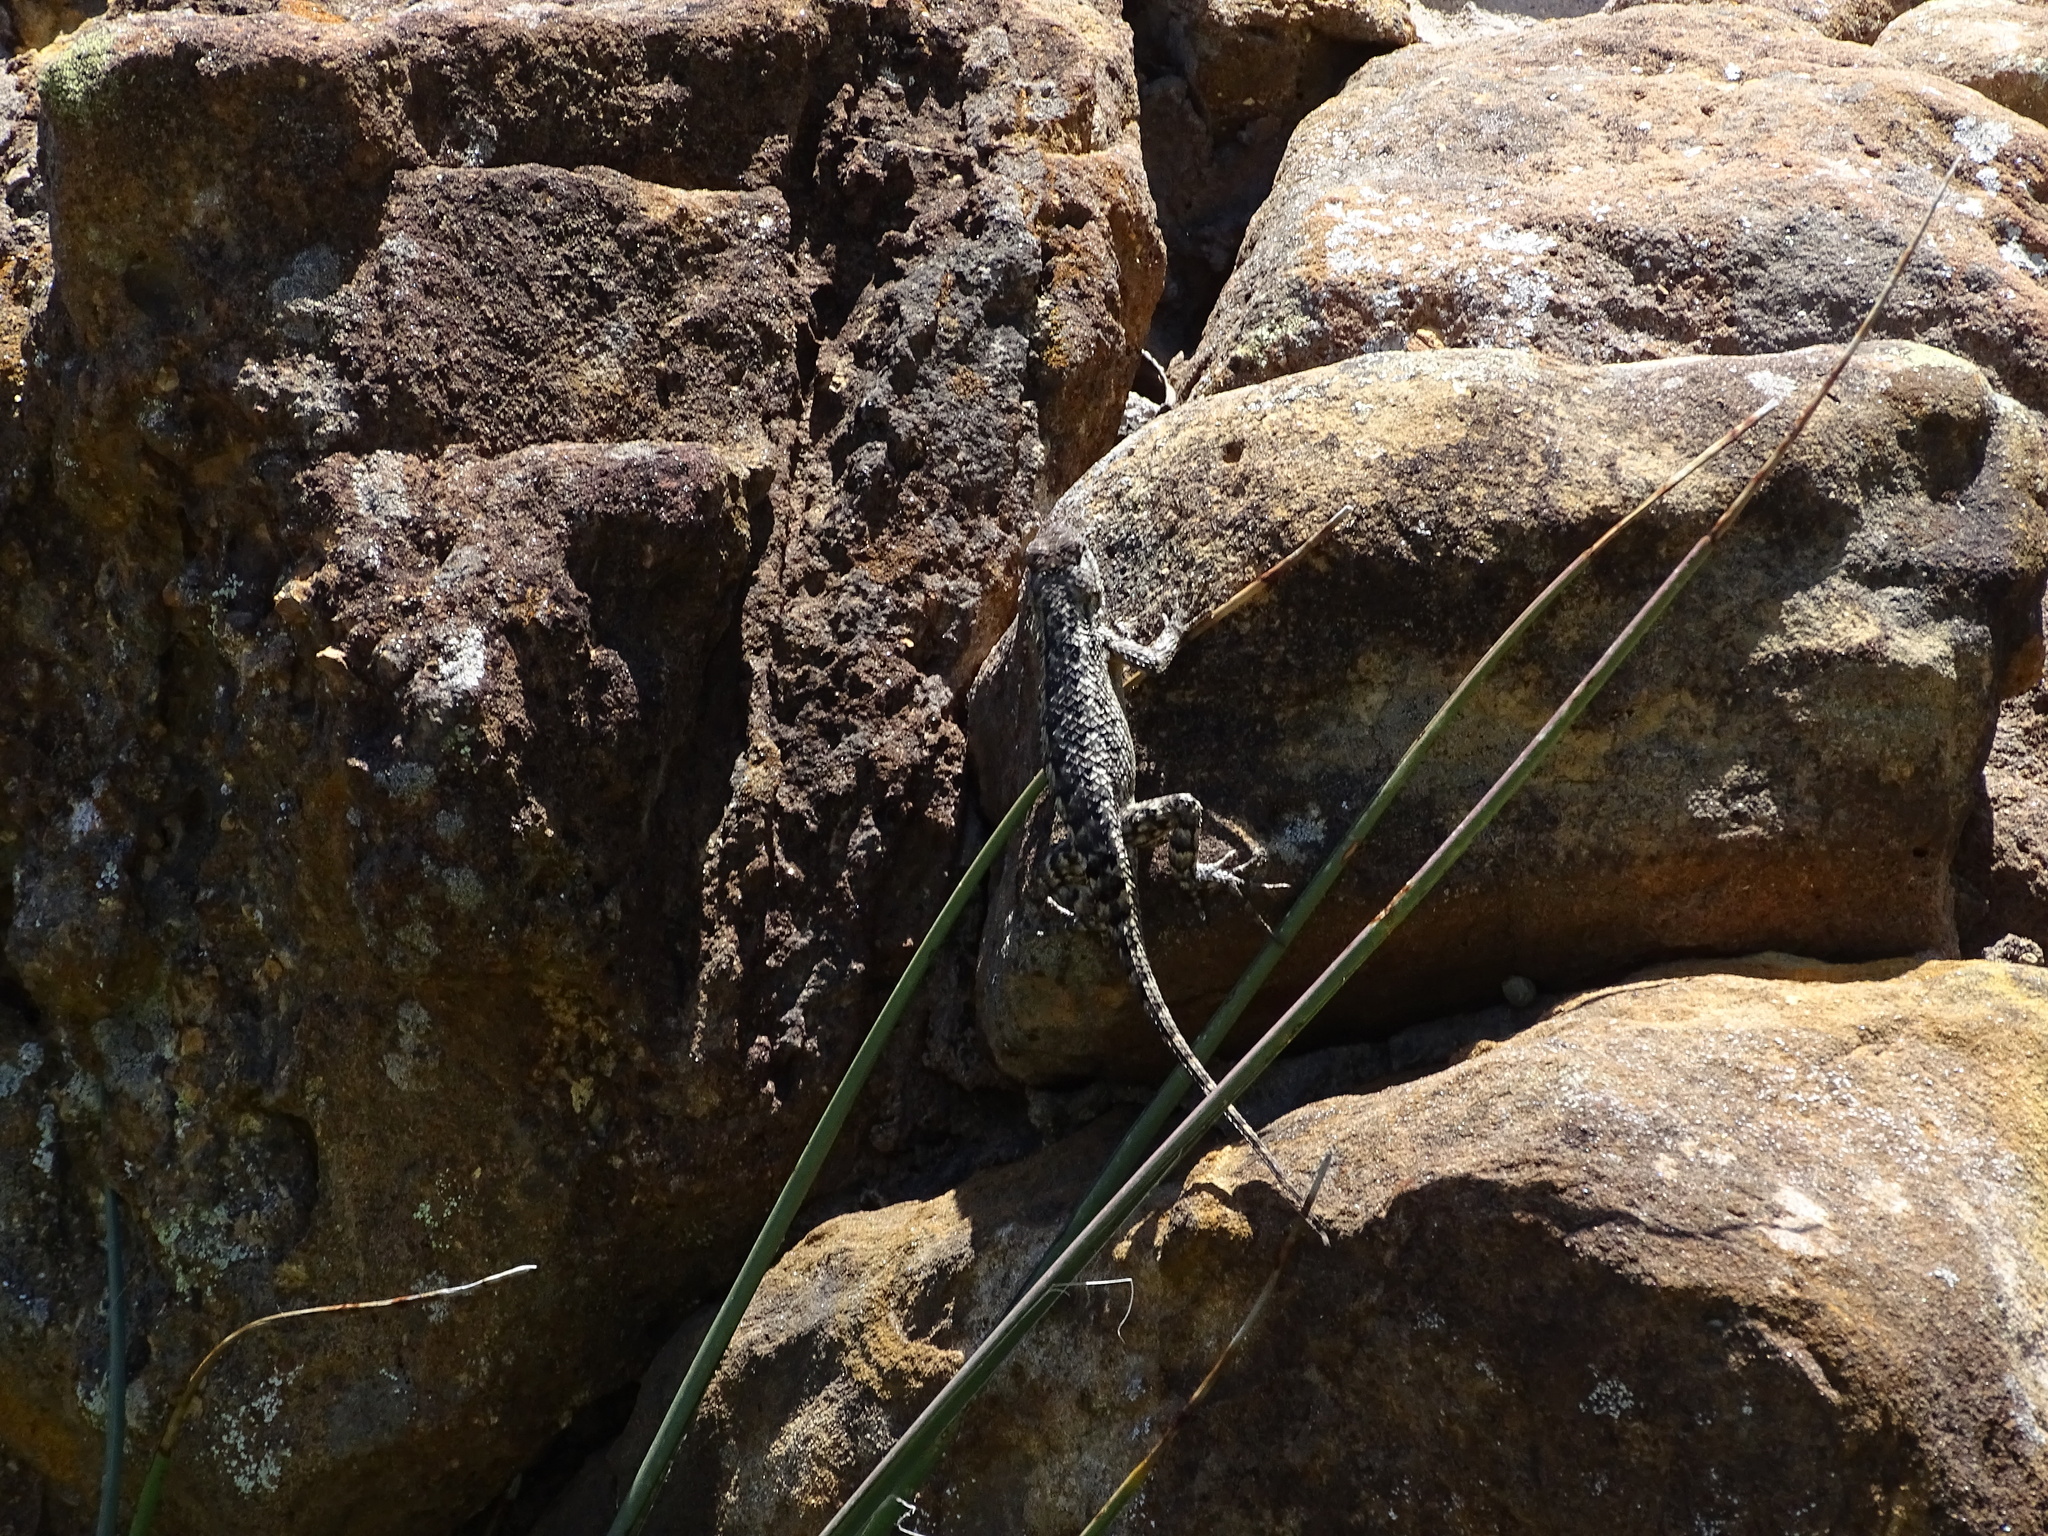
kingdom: Animalia
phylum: Chordata
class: Squamata
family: Phrynosomatidae
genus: Sceloporus
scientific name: Sceloporus olivaceus
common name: Texas spiny lizard
